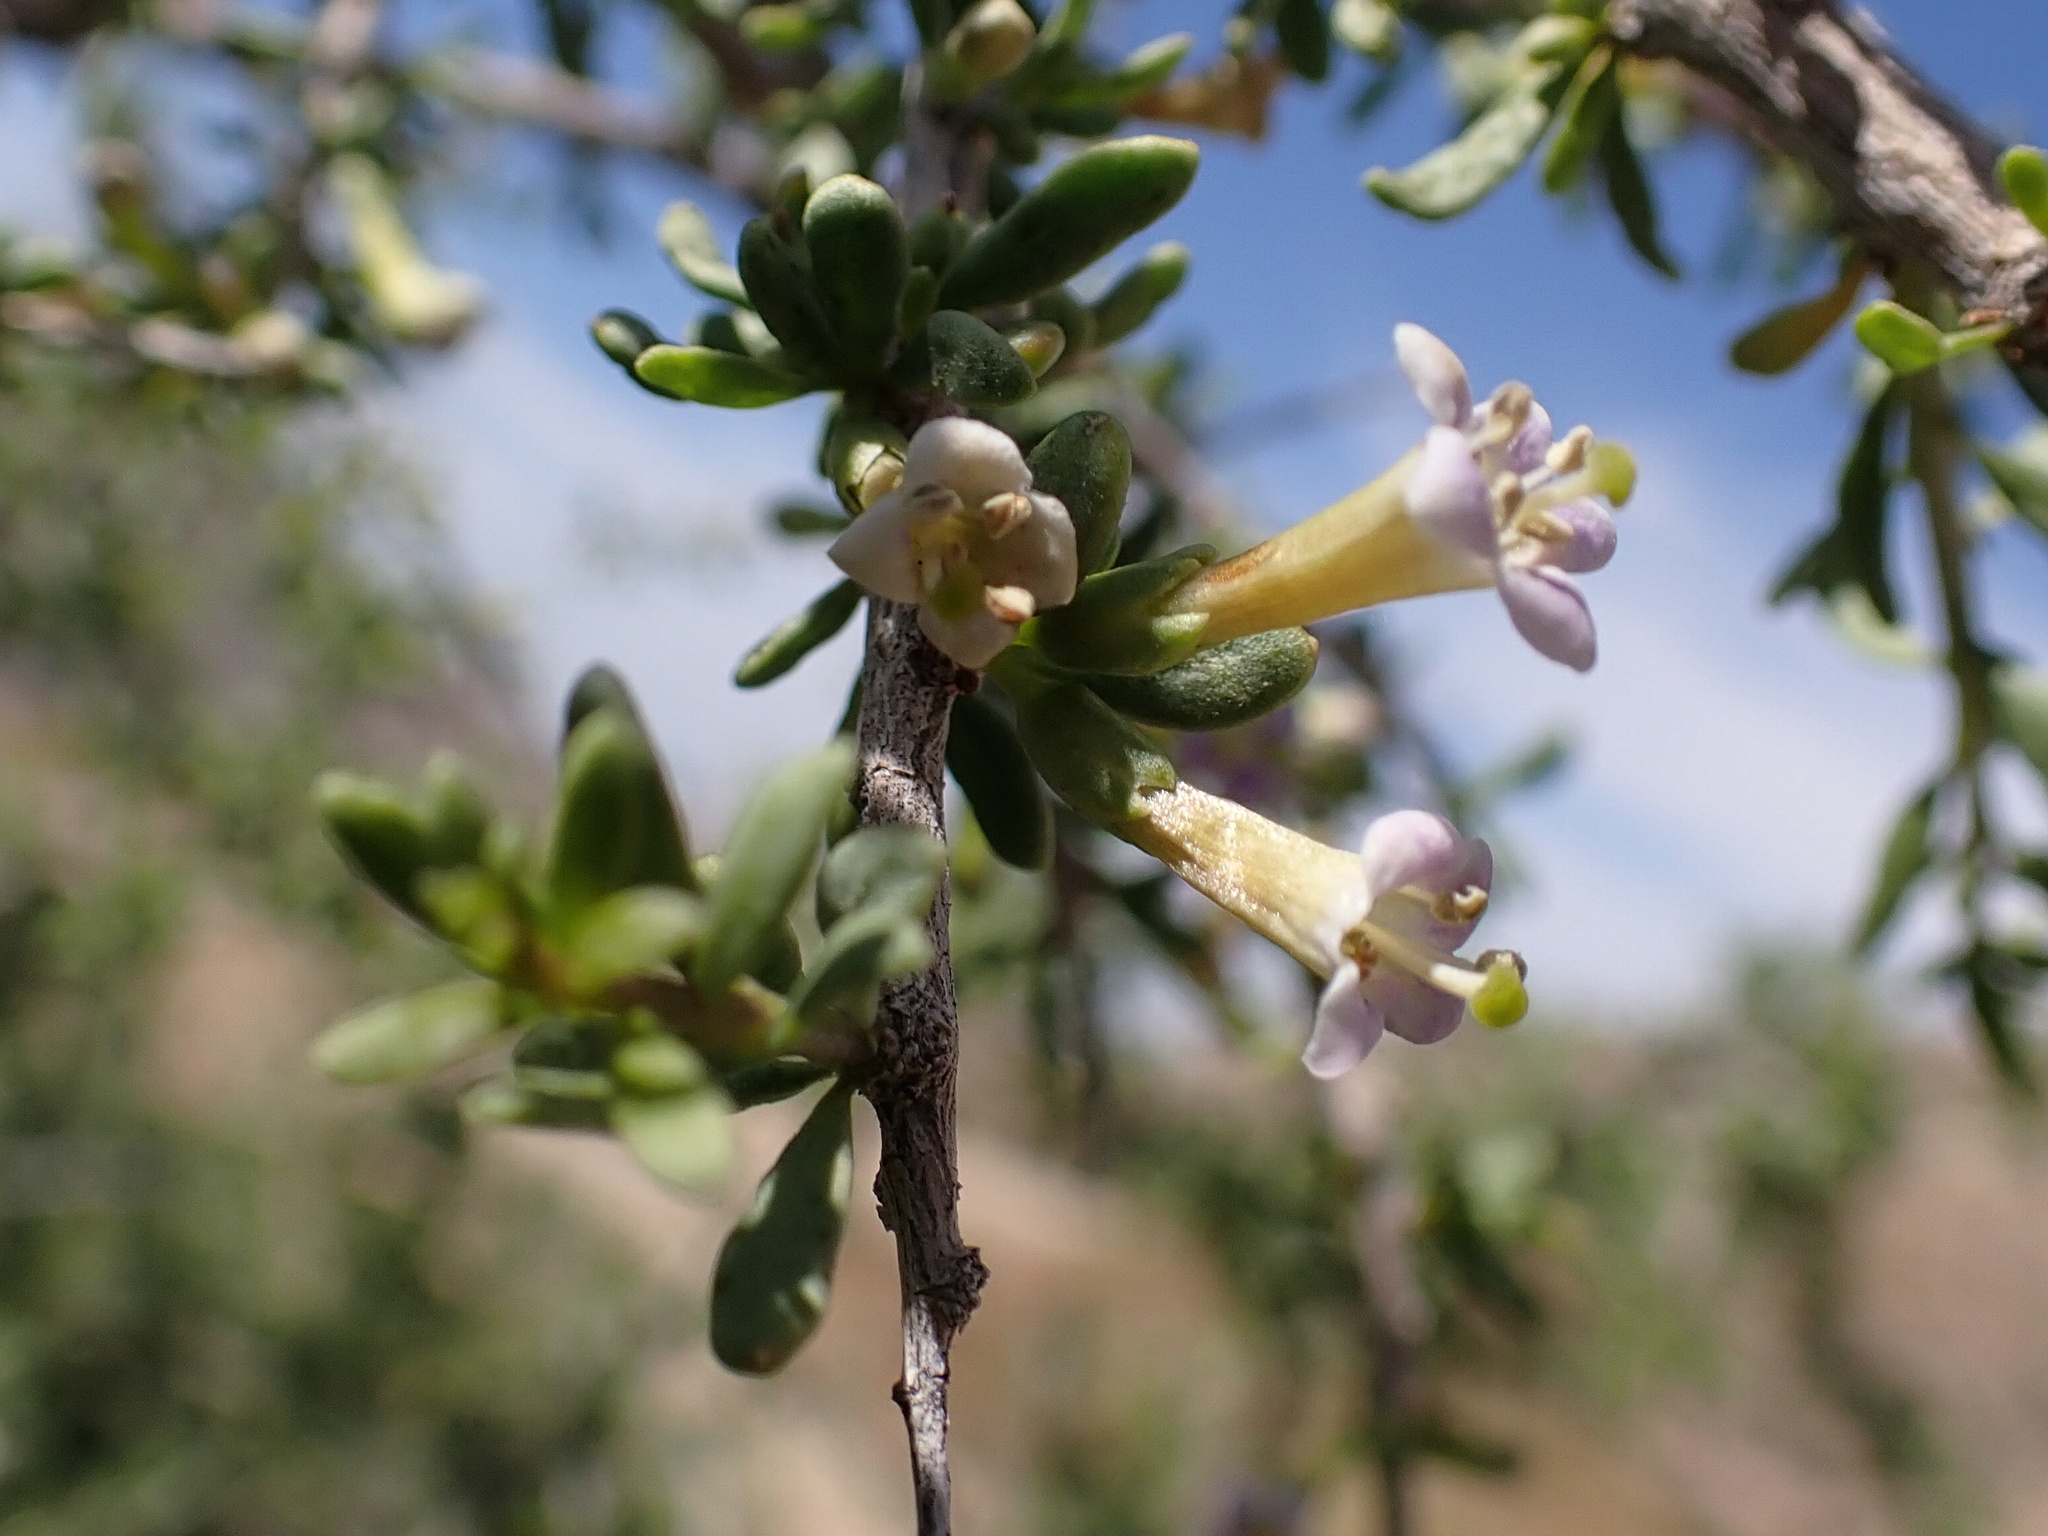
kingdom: Plantae
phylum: Tracheophyta
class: Magnoliopsida
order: Solanales
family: Solanaceae
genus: Lycium
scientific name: Lycium andersonii
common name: Water-jacket
